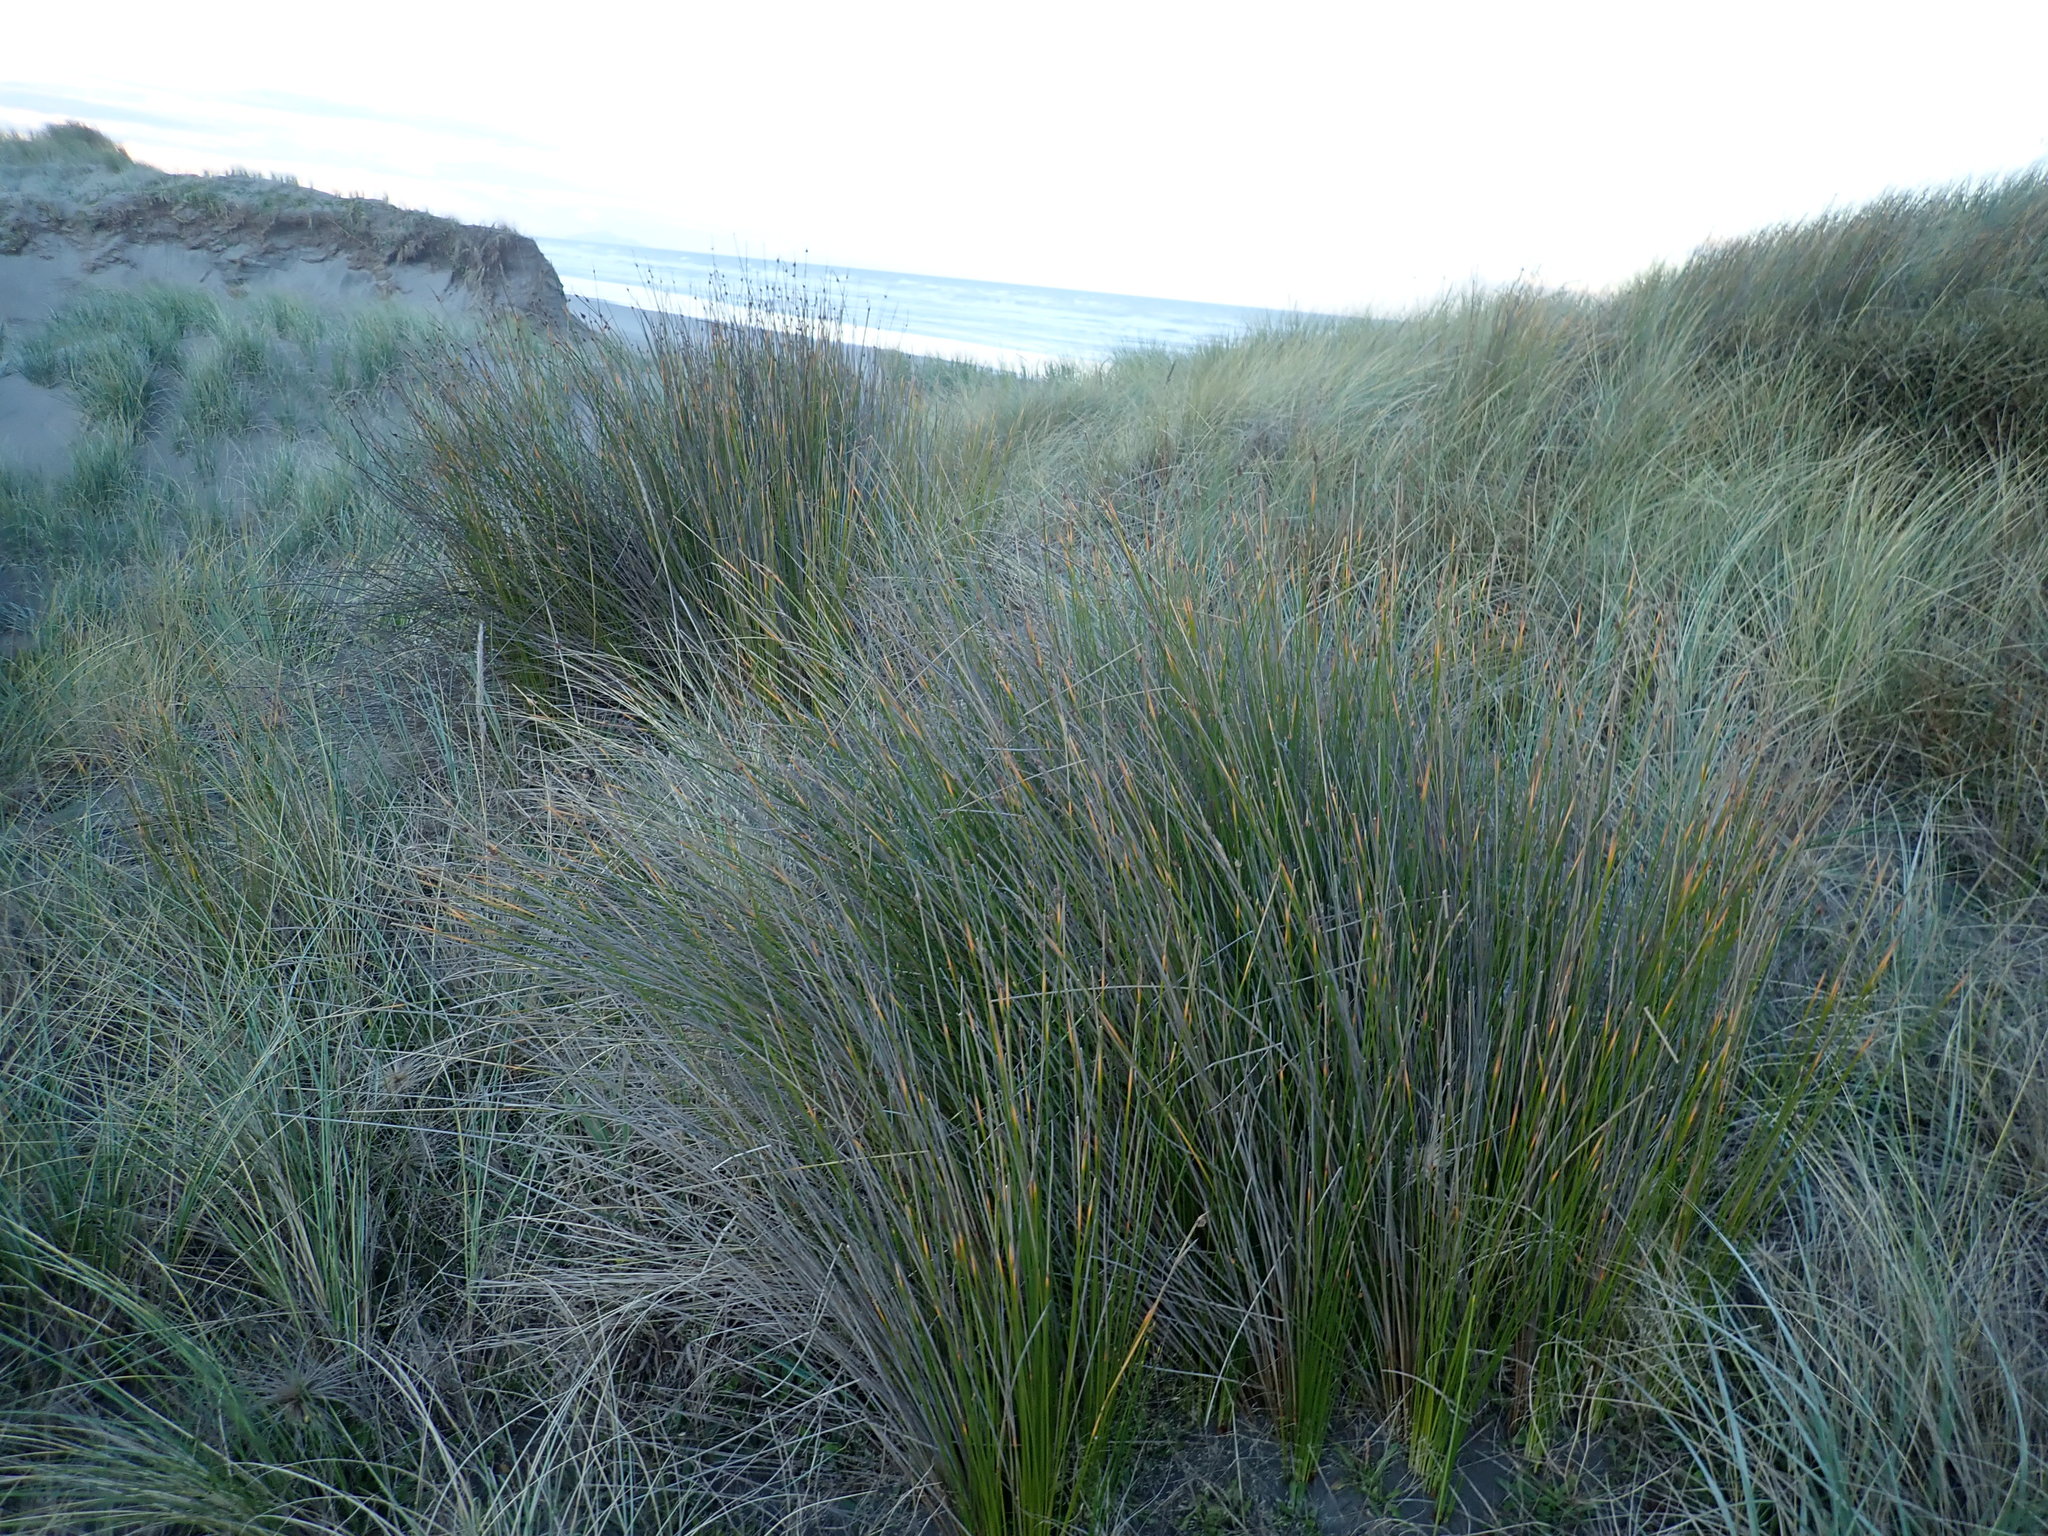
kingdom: Plantae
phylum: Tracheophyta
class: Liliopsida
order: Poales
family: Cyperaceae
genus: Ficinia
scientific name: Ficinia nodosa
